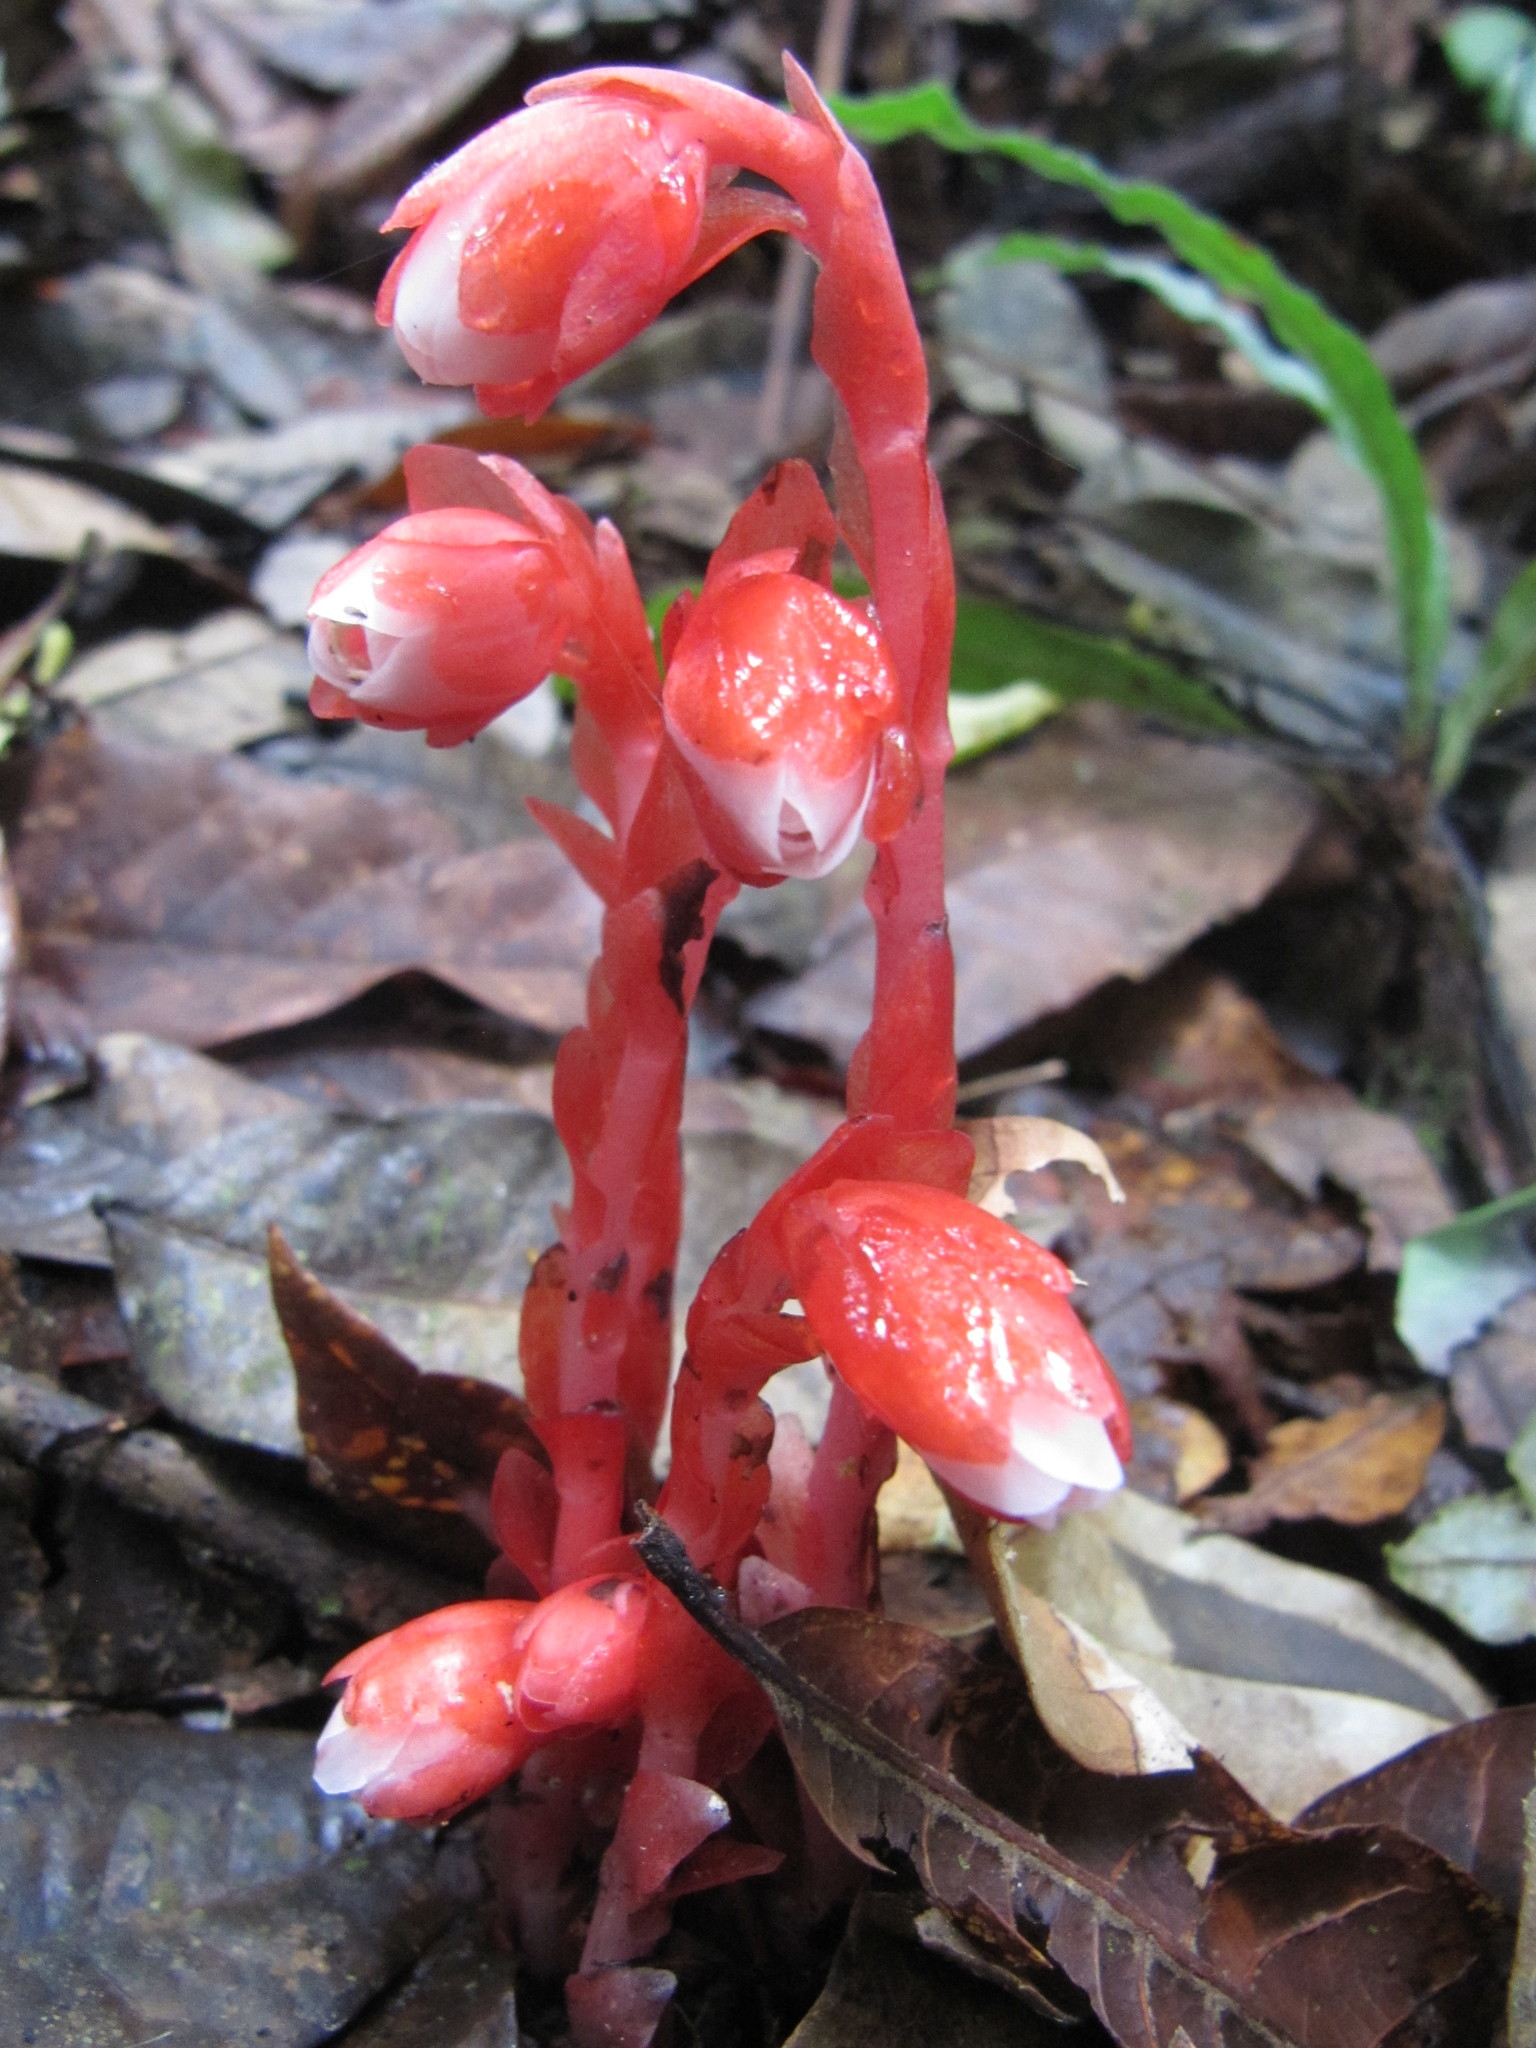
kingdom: Plantae
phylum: Tracheophyta
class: Magnoliopsida
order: Ericales
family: Ericaceae
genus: Monotropa
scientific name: Monotropa coccinea
